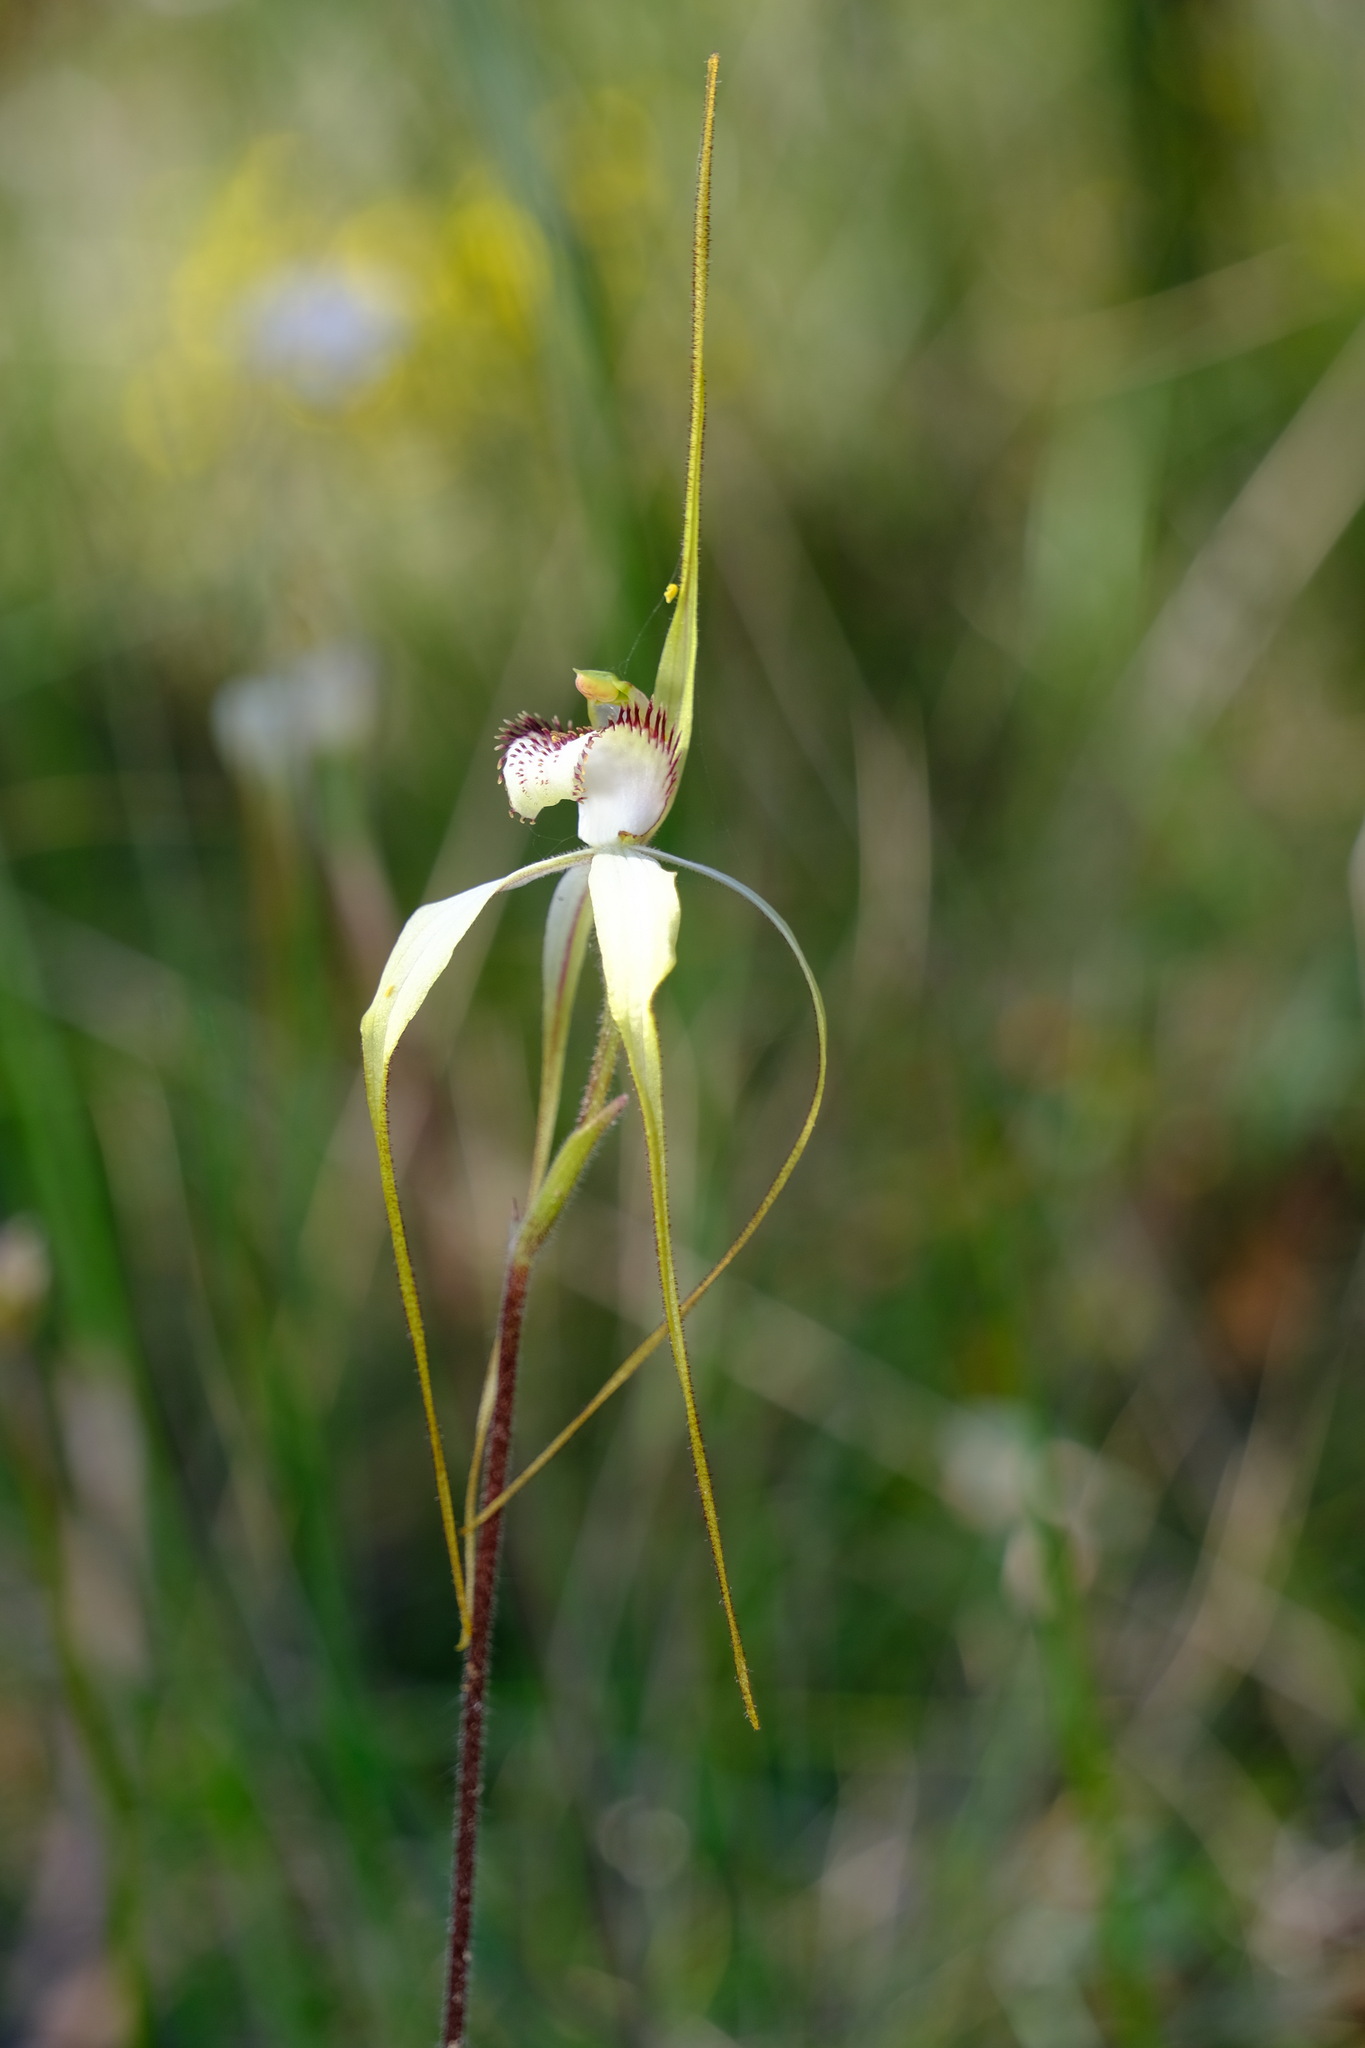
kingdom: Plantae
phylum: Tracheophyta
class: Liliopsida
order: Asparagales
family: Orchidaceae
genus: Caladenia
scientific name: Caladenia venusta
